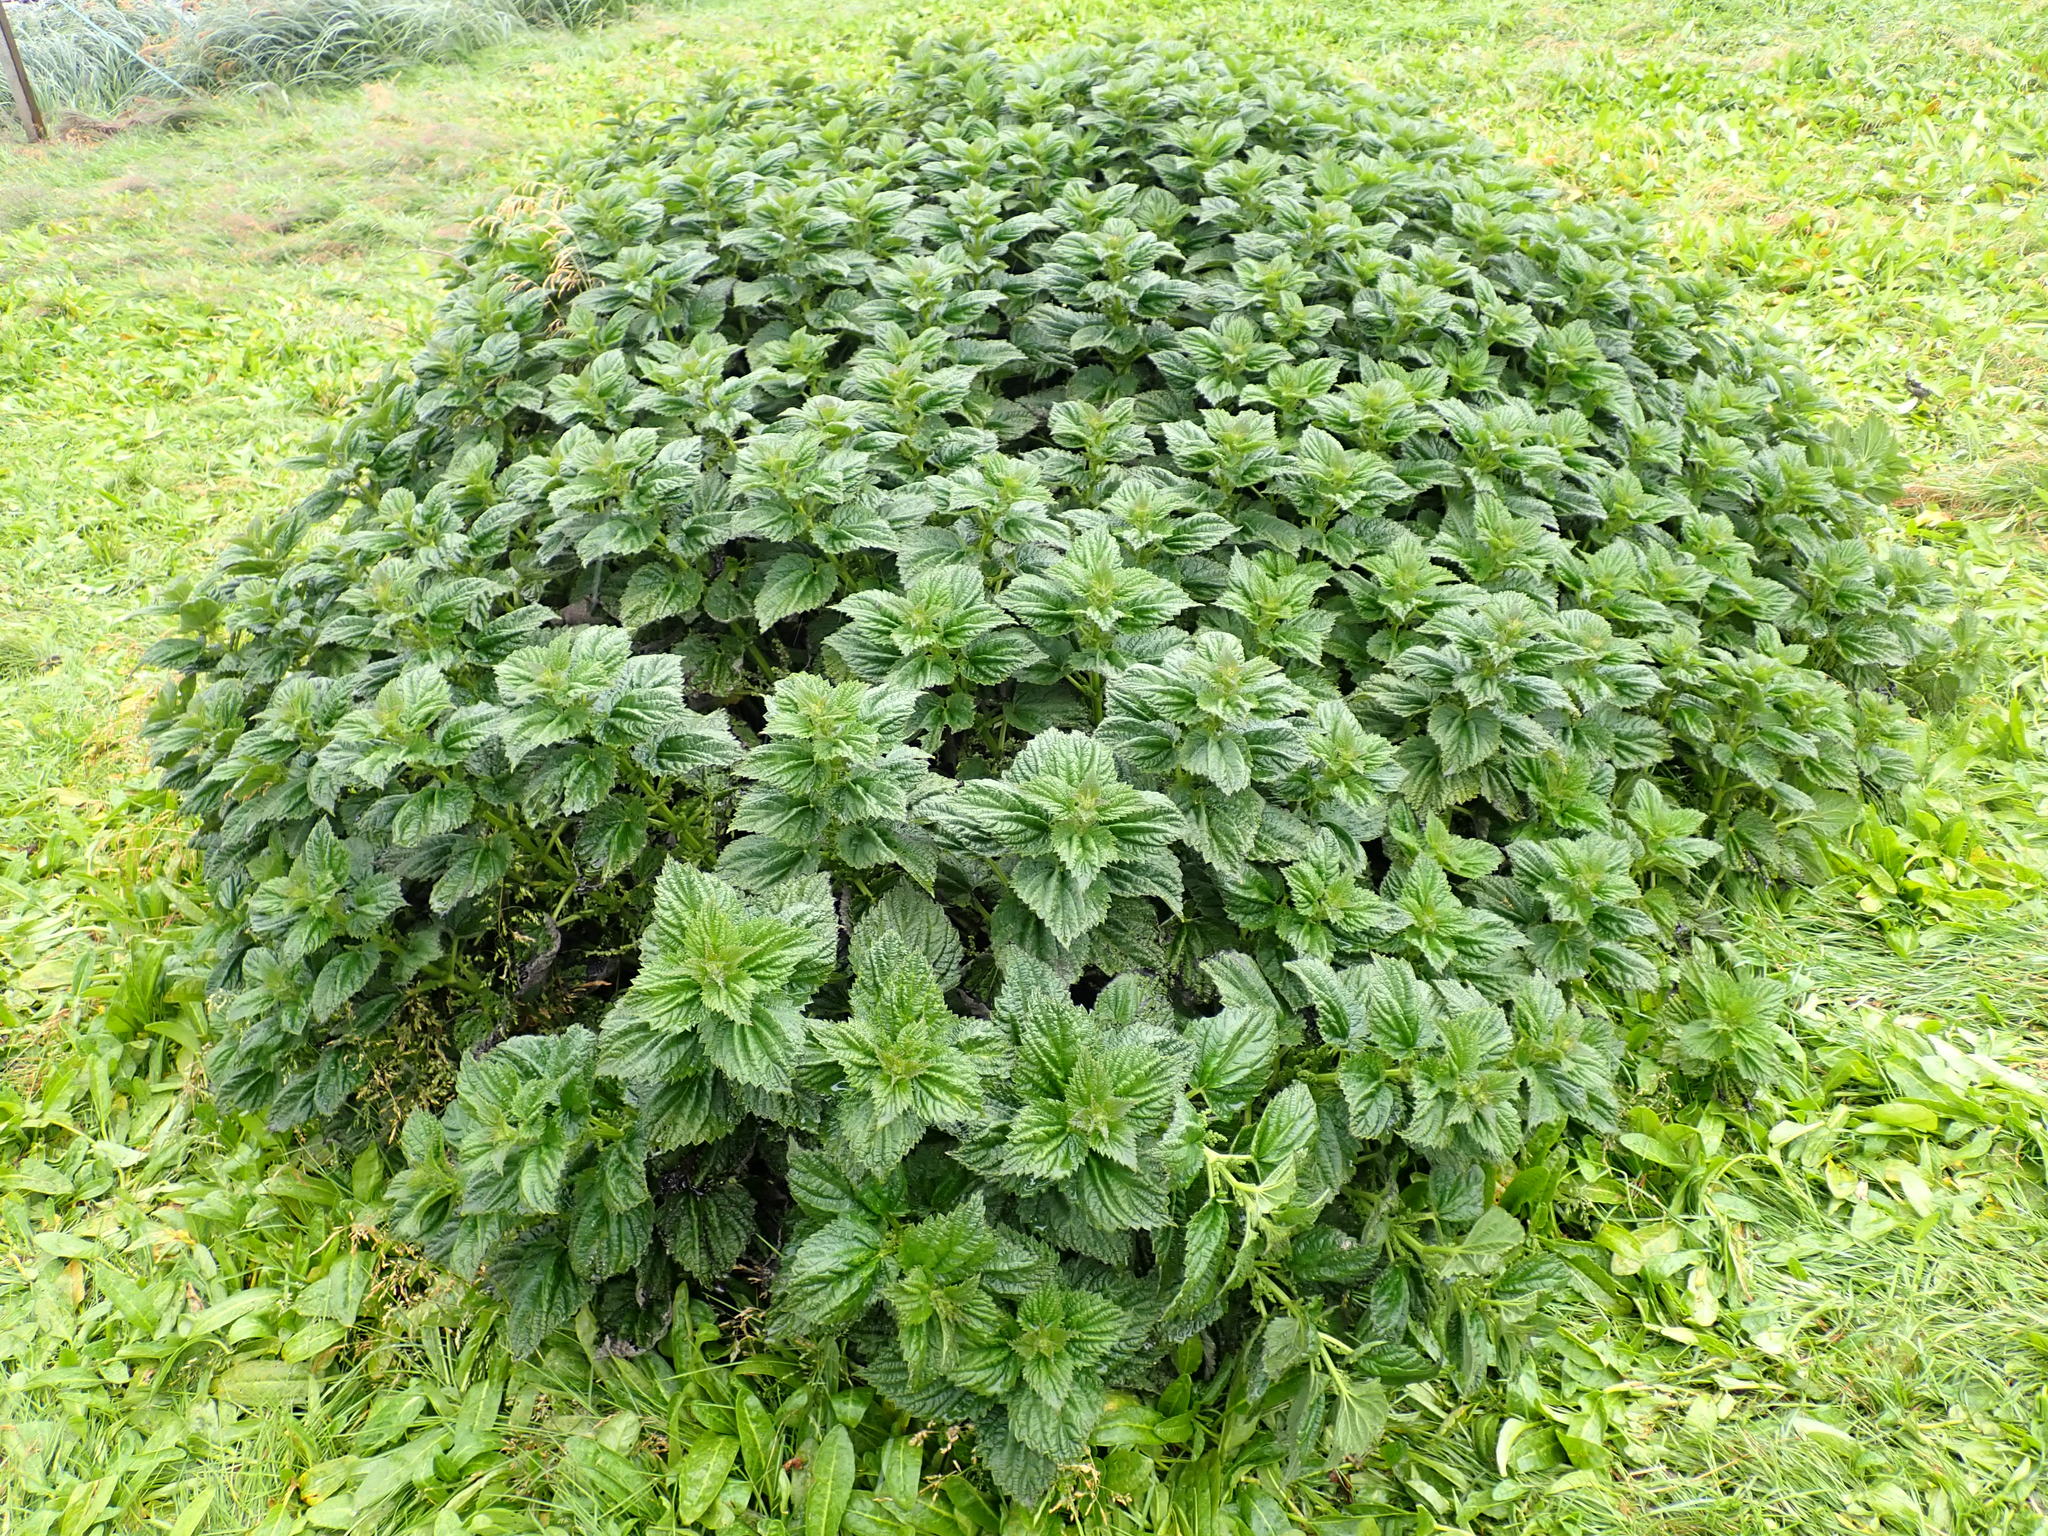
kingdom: Plantae
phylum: Tracheophyta
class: Magnoliopsida
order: Rosales
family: Urticaceae
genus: Urtica
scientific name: Urtica australis
